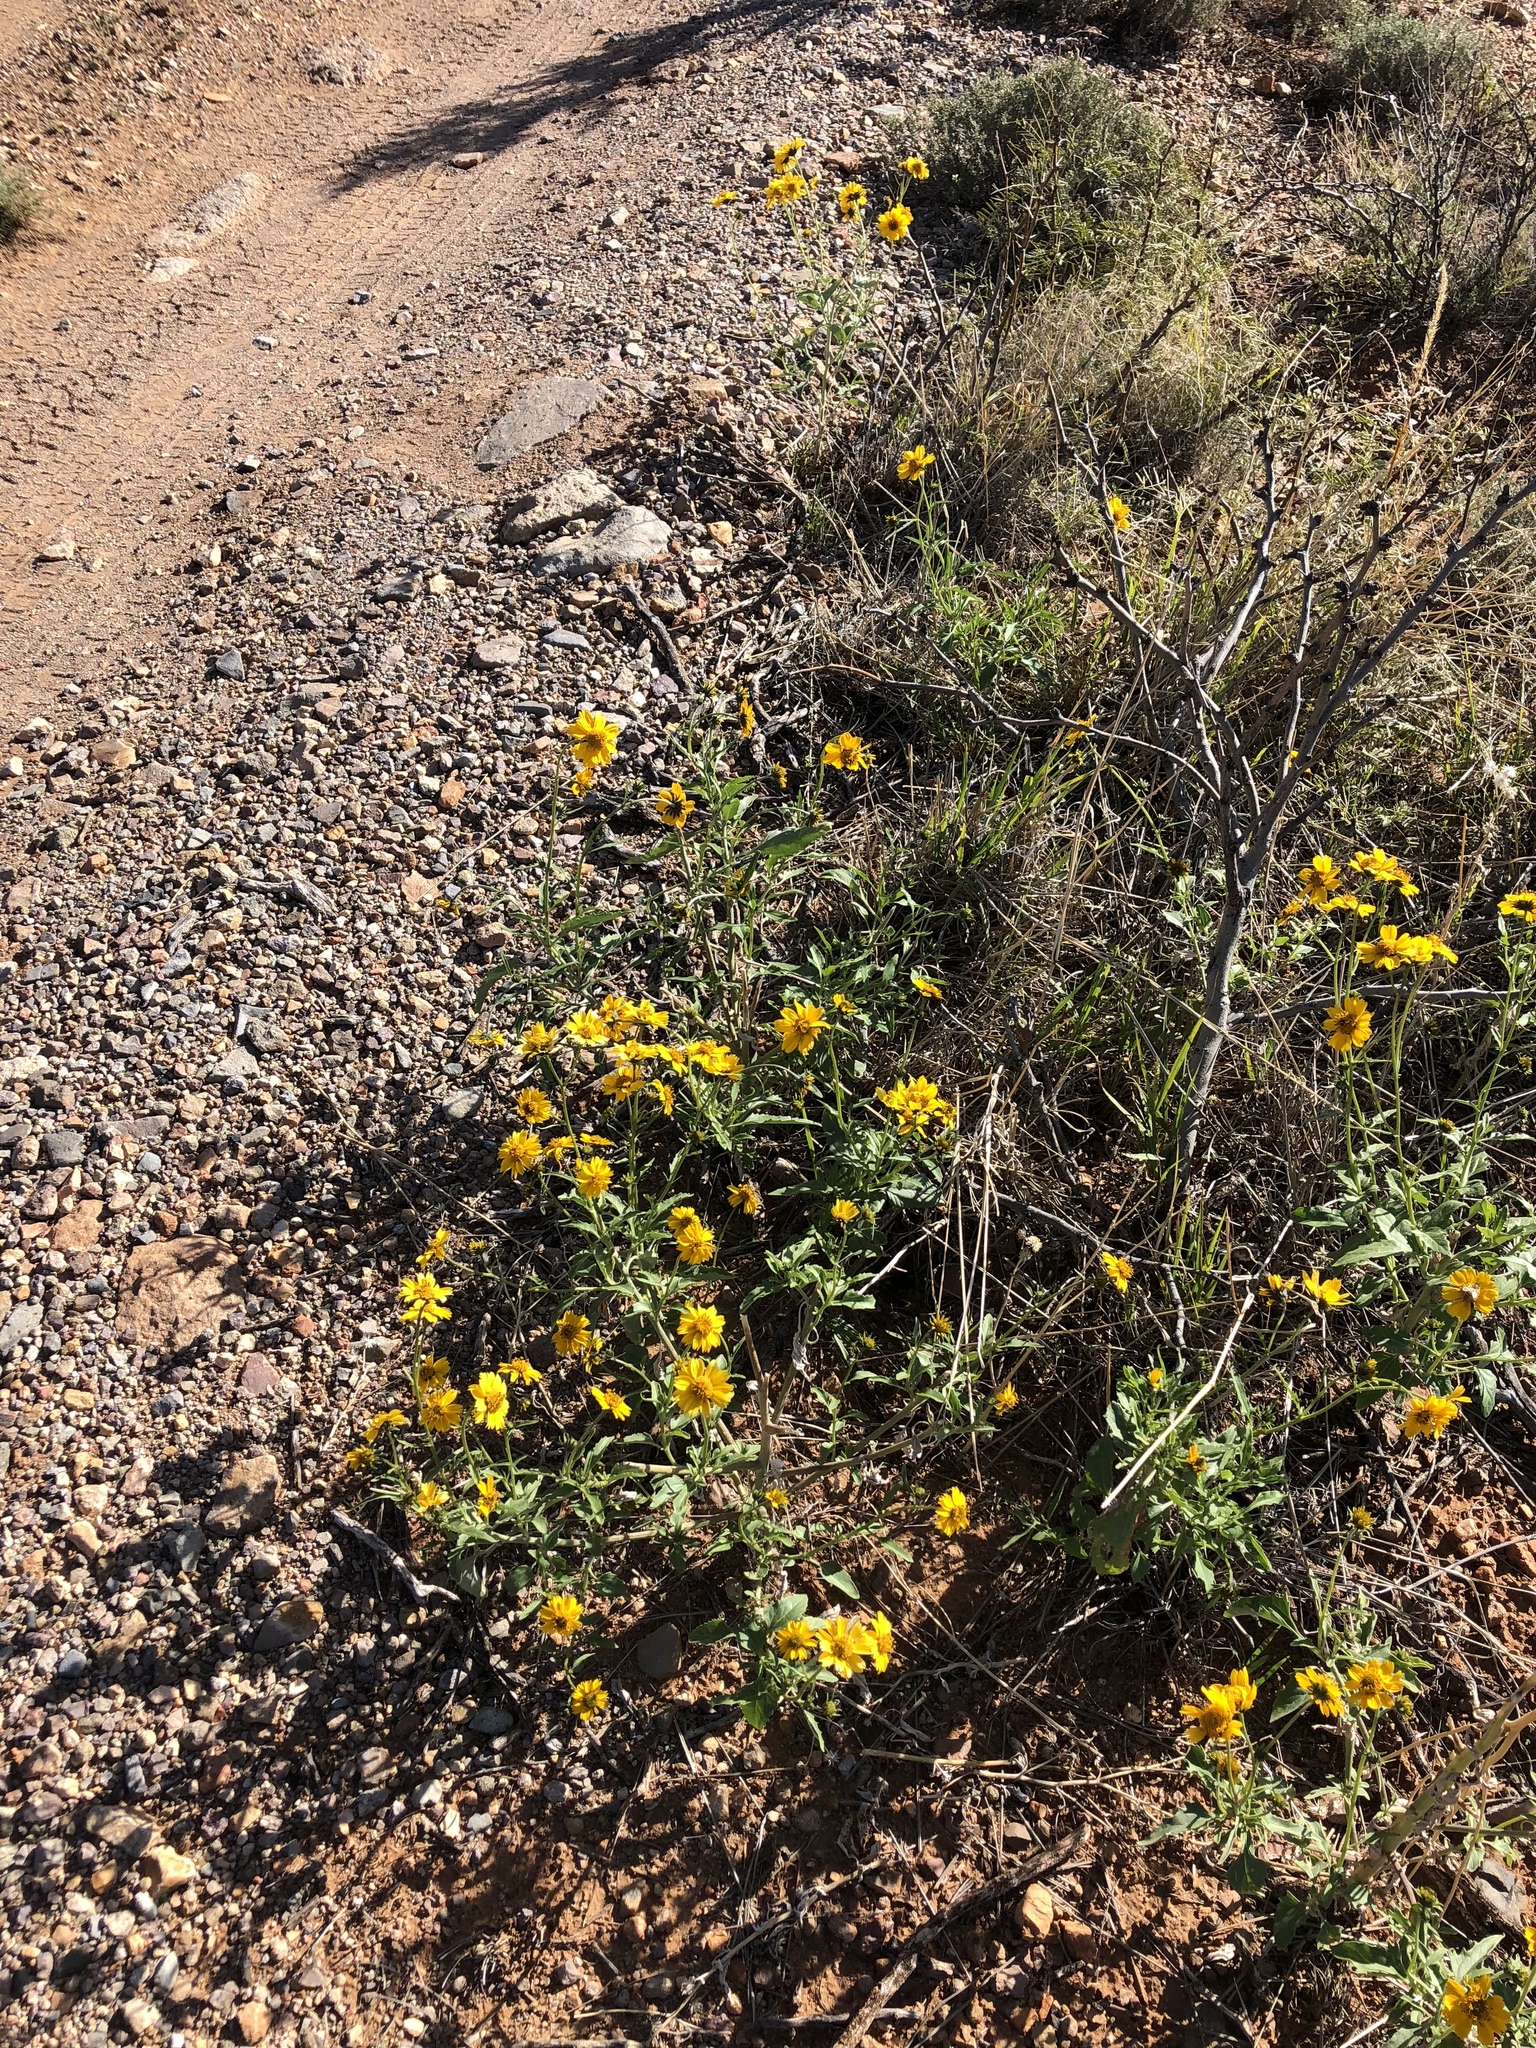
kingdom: Plantae
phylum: Tracheophyta
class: Magnoliopsida
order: Asterales
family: Asteraceae
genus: Verbesina
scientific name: Verbesina encelioides
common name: Golden crownbeard
